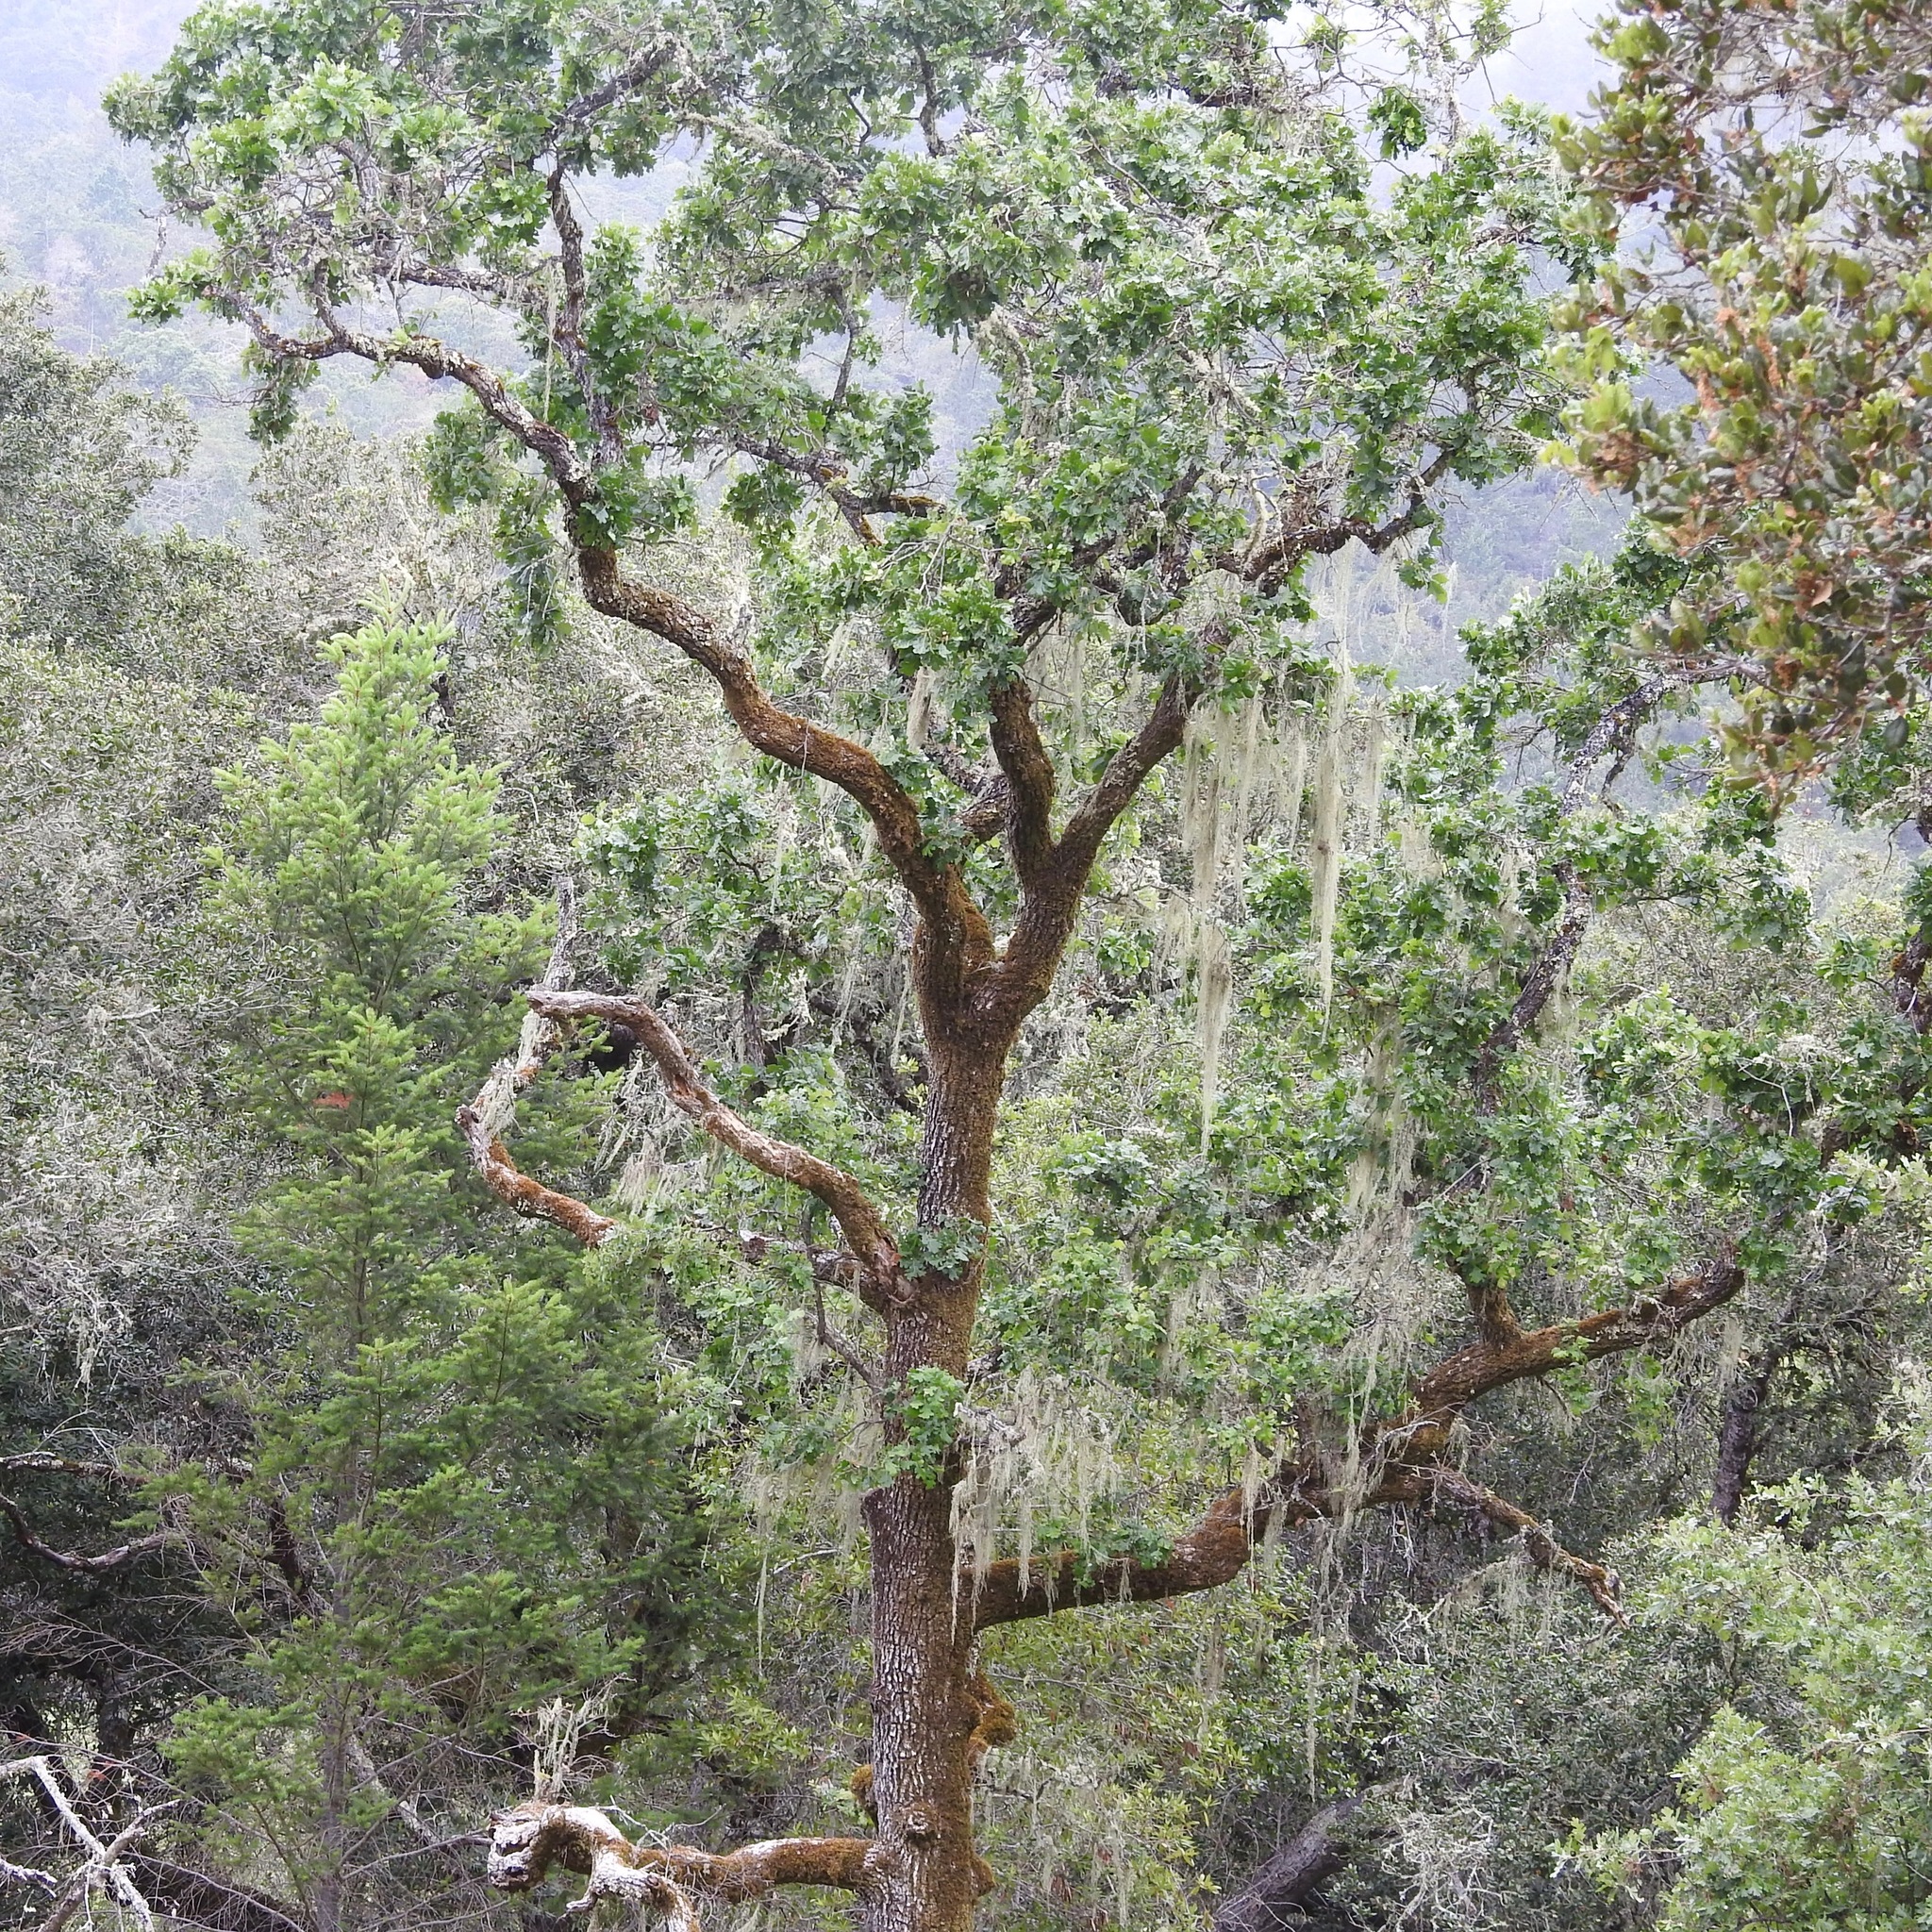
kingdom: Plantae
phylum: Tracheophyta
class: Magnoliopsida
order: Fagales
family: Fagaceae
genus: Quercus
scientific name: Quercus garryana
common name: Garry oak
